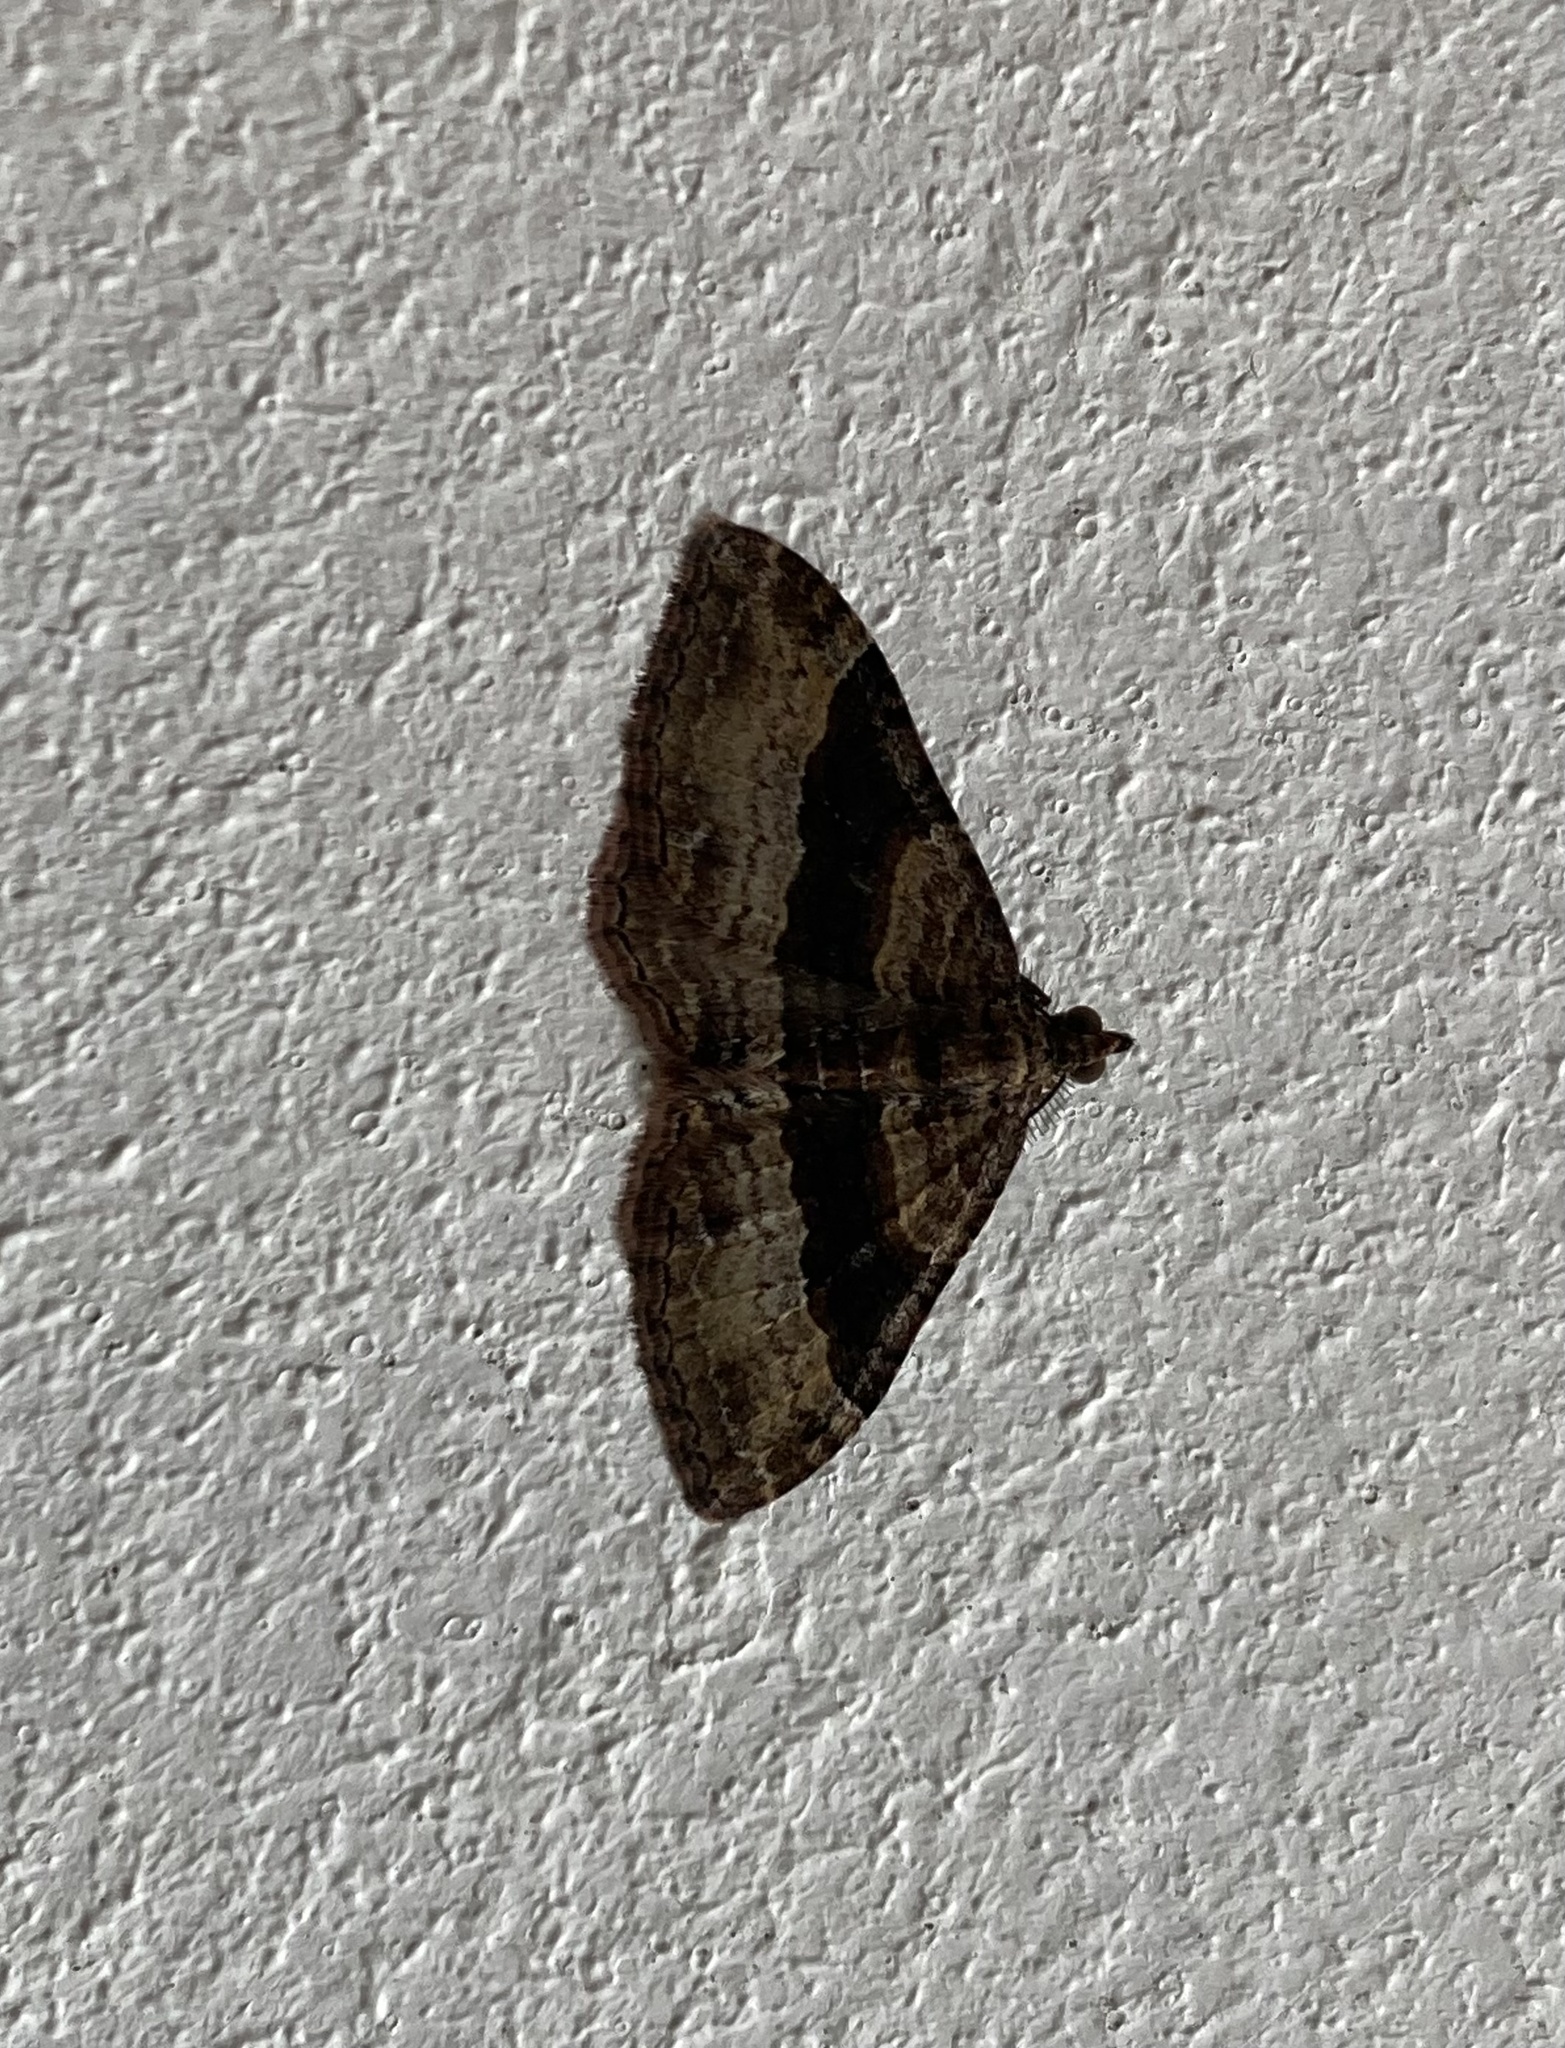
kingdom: Animalia
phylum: Arthropoda
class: Insecta
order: Lepidoptera
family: Geometridae
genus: Epyaxa
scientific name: Epyaxa lucidata
